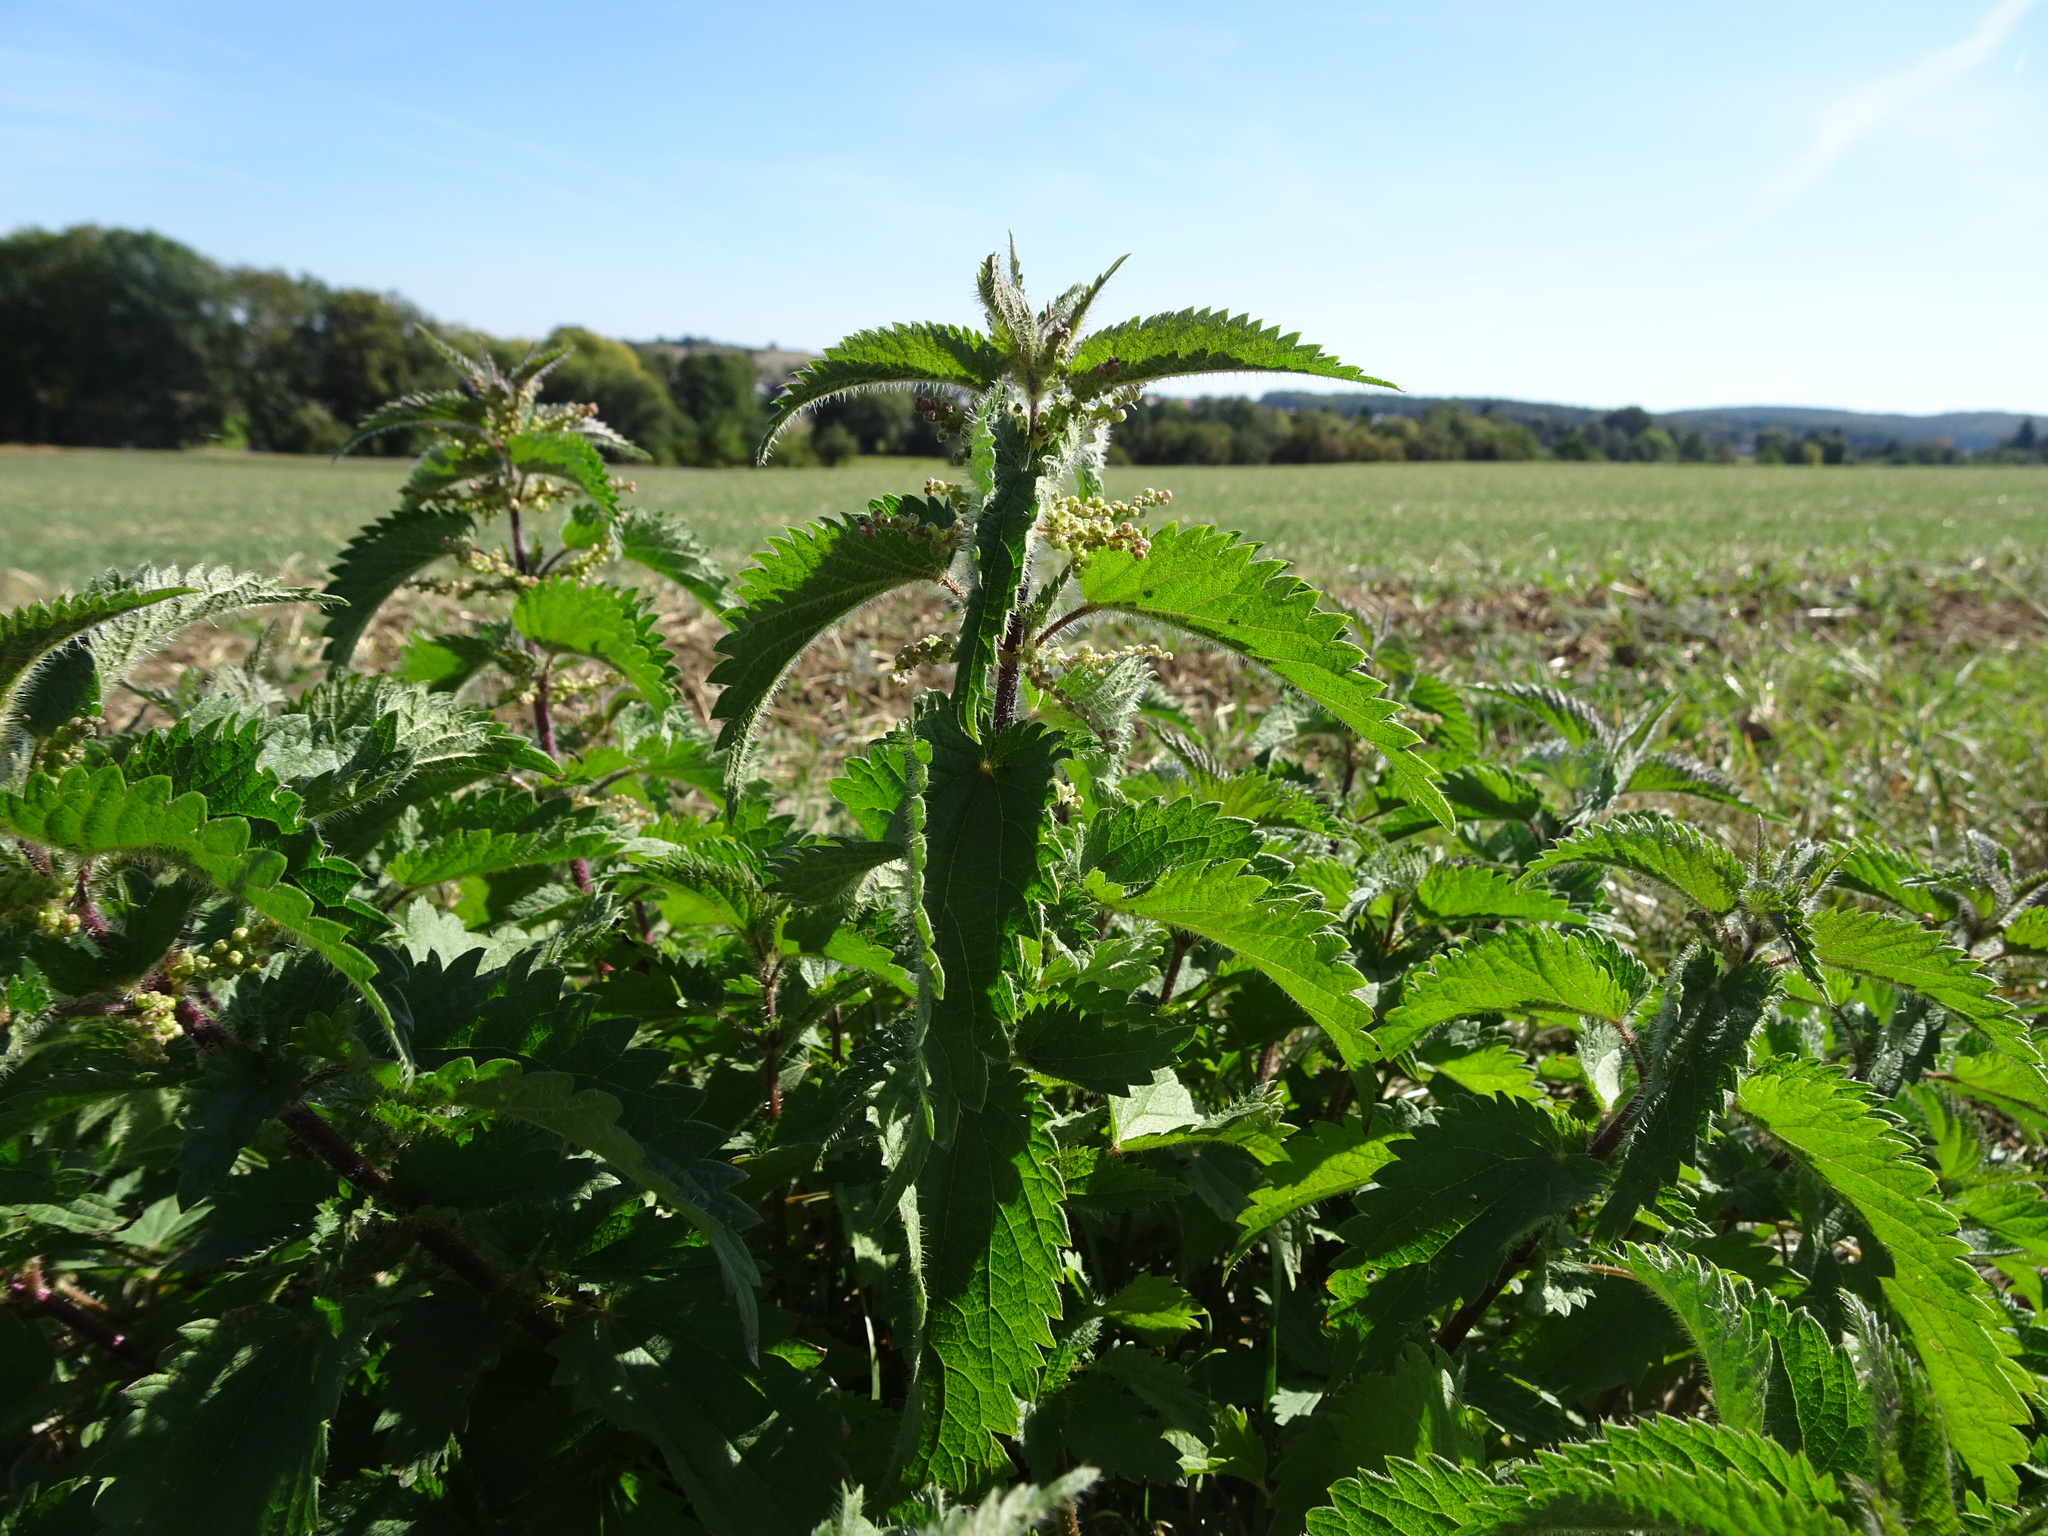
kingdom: Plantae
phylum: Tracheophyta
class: Magnoliopsida
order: Rosales
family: Urticaceae
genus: Urtica
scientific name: Urtica dioica
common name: Common nettle
